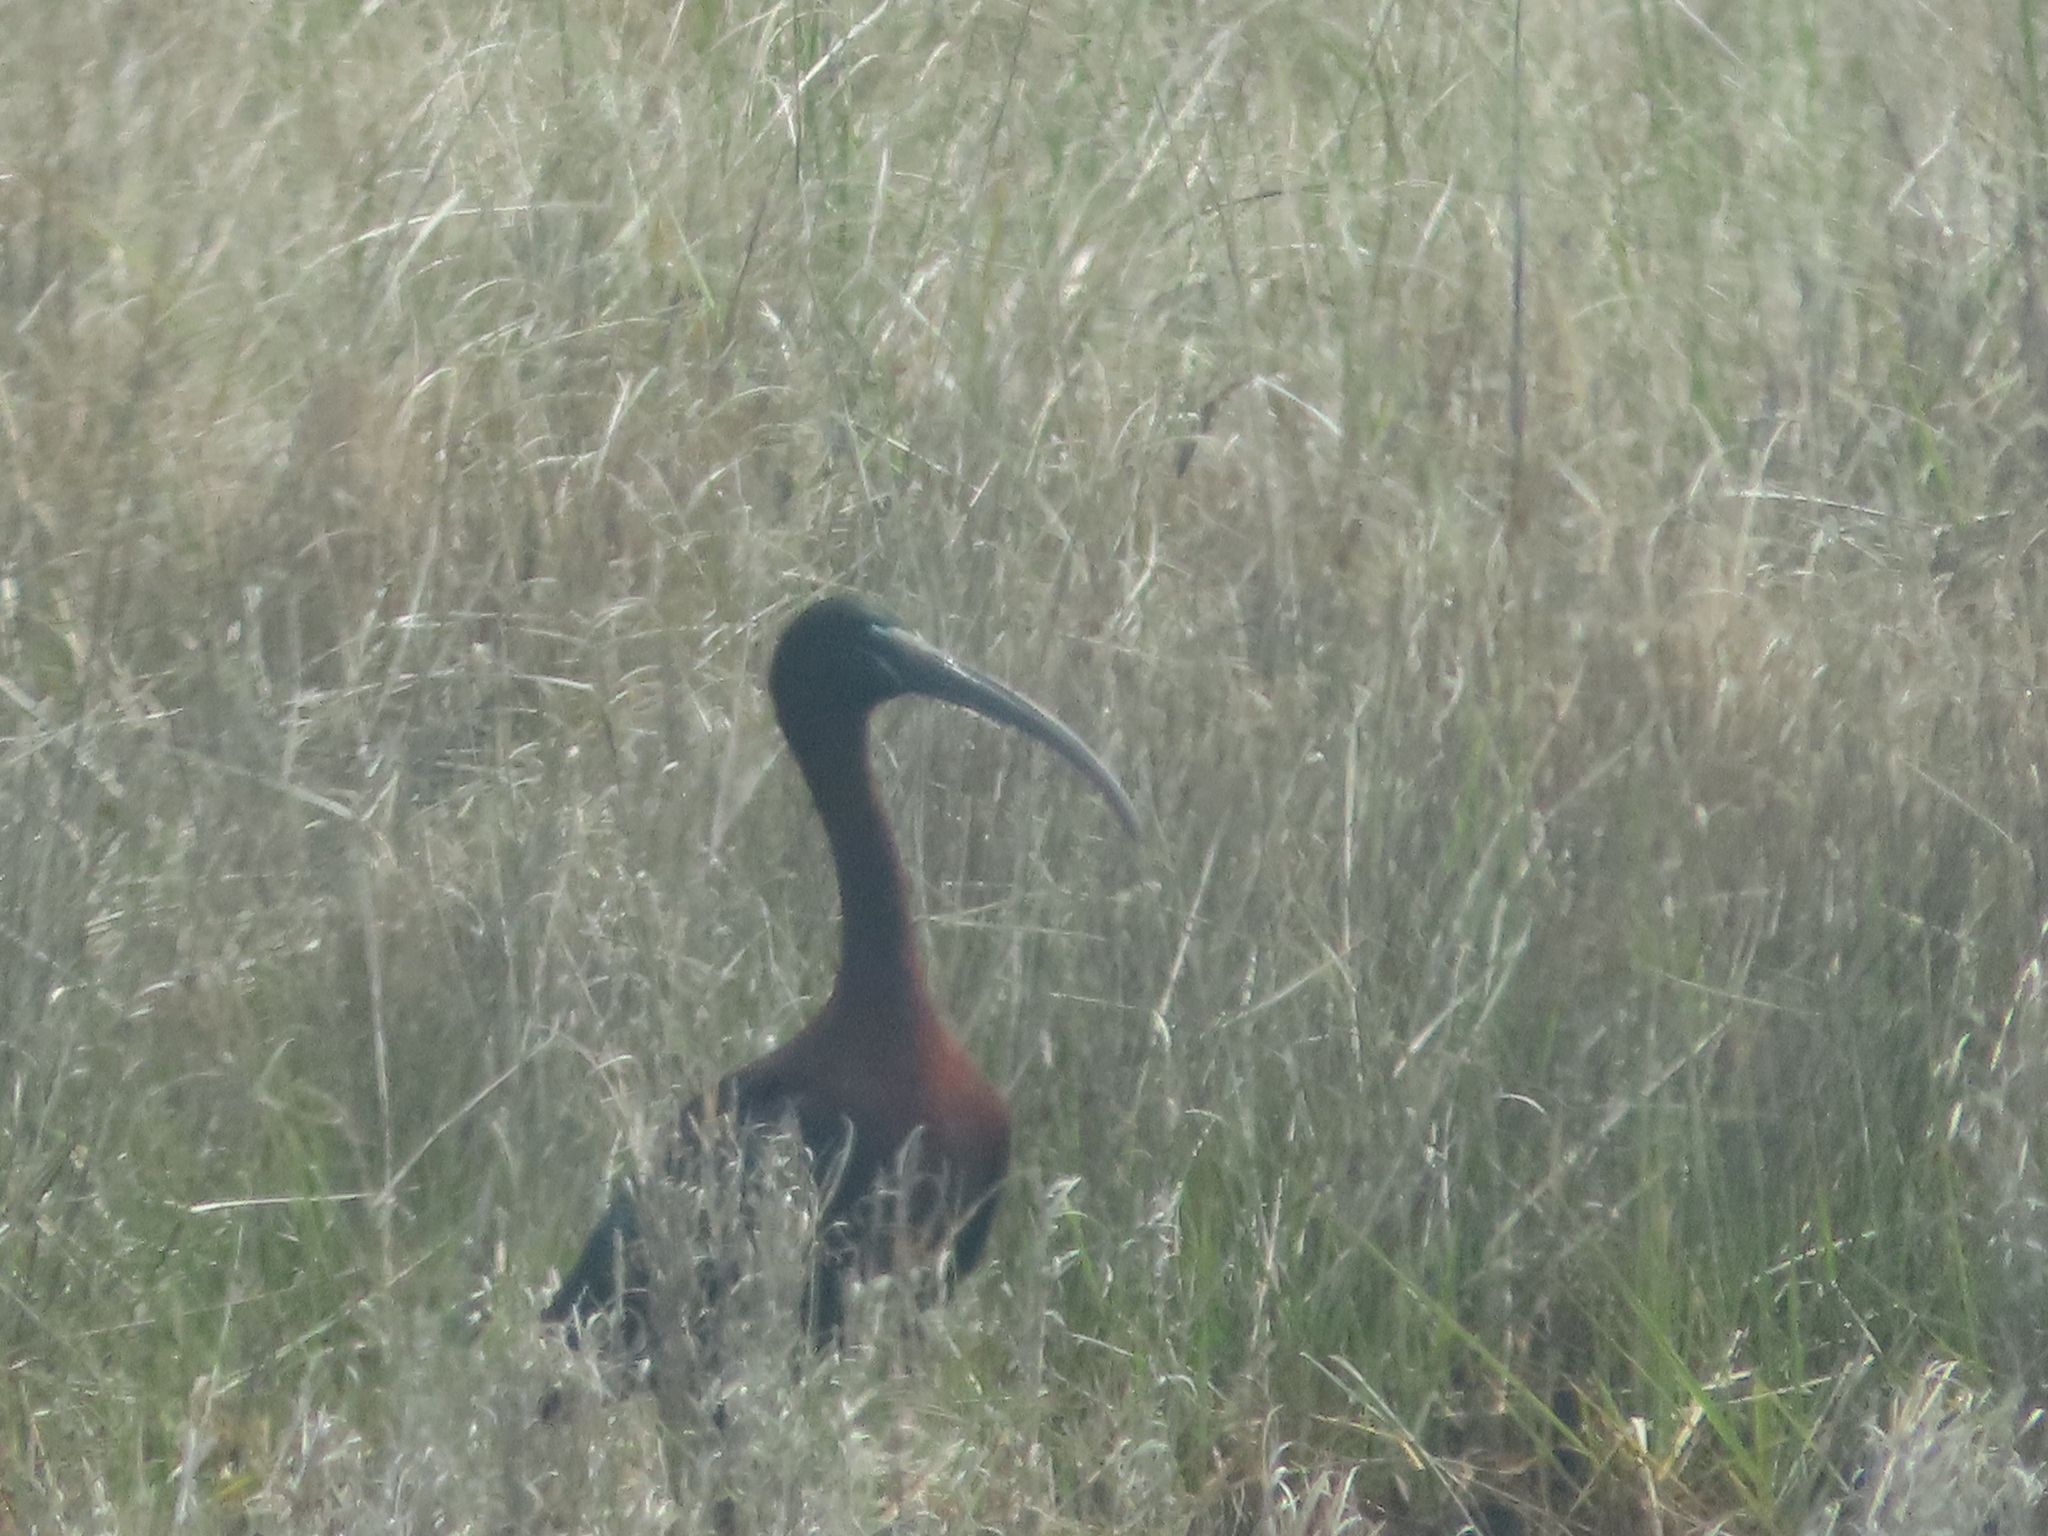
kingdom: Animalia
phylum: Chordata
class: Aves
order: Pelecaniformes
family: Threskiornithidae
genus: Plegadis
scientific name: Plegadis falcinellus
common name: Glossy ibis
